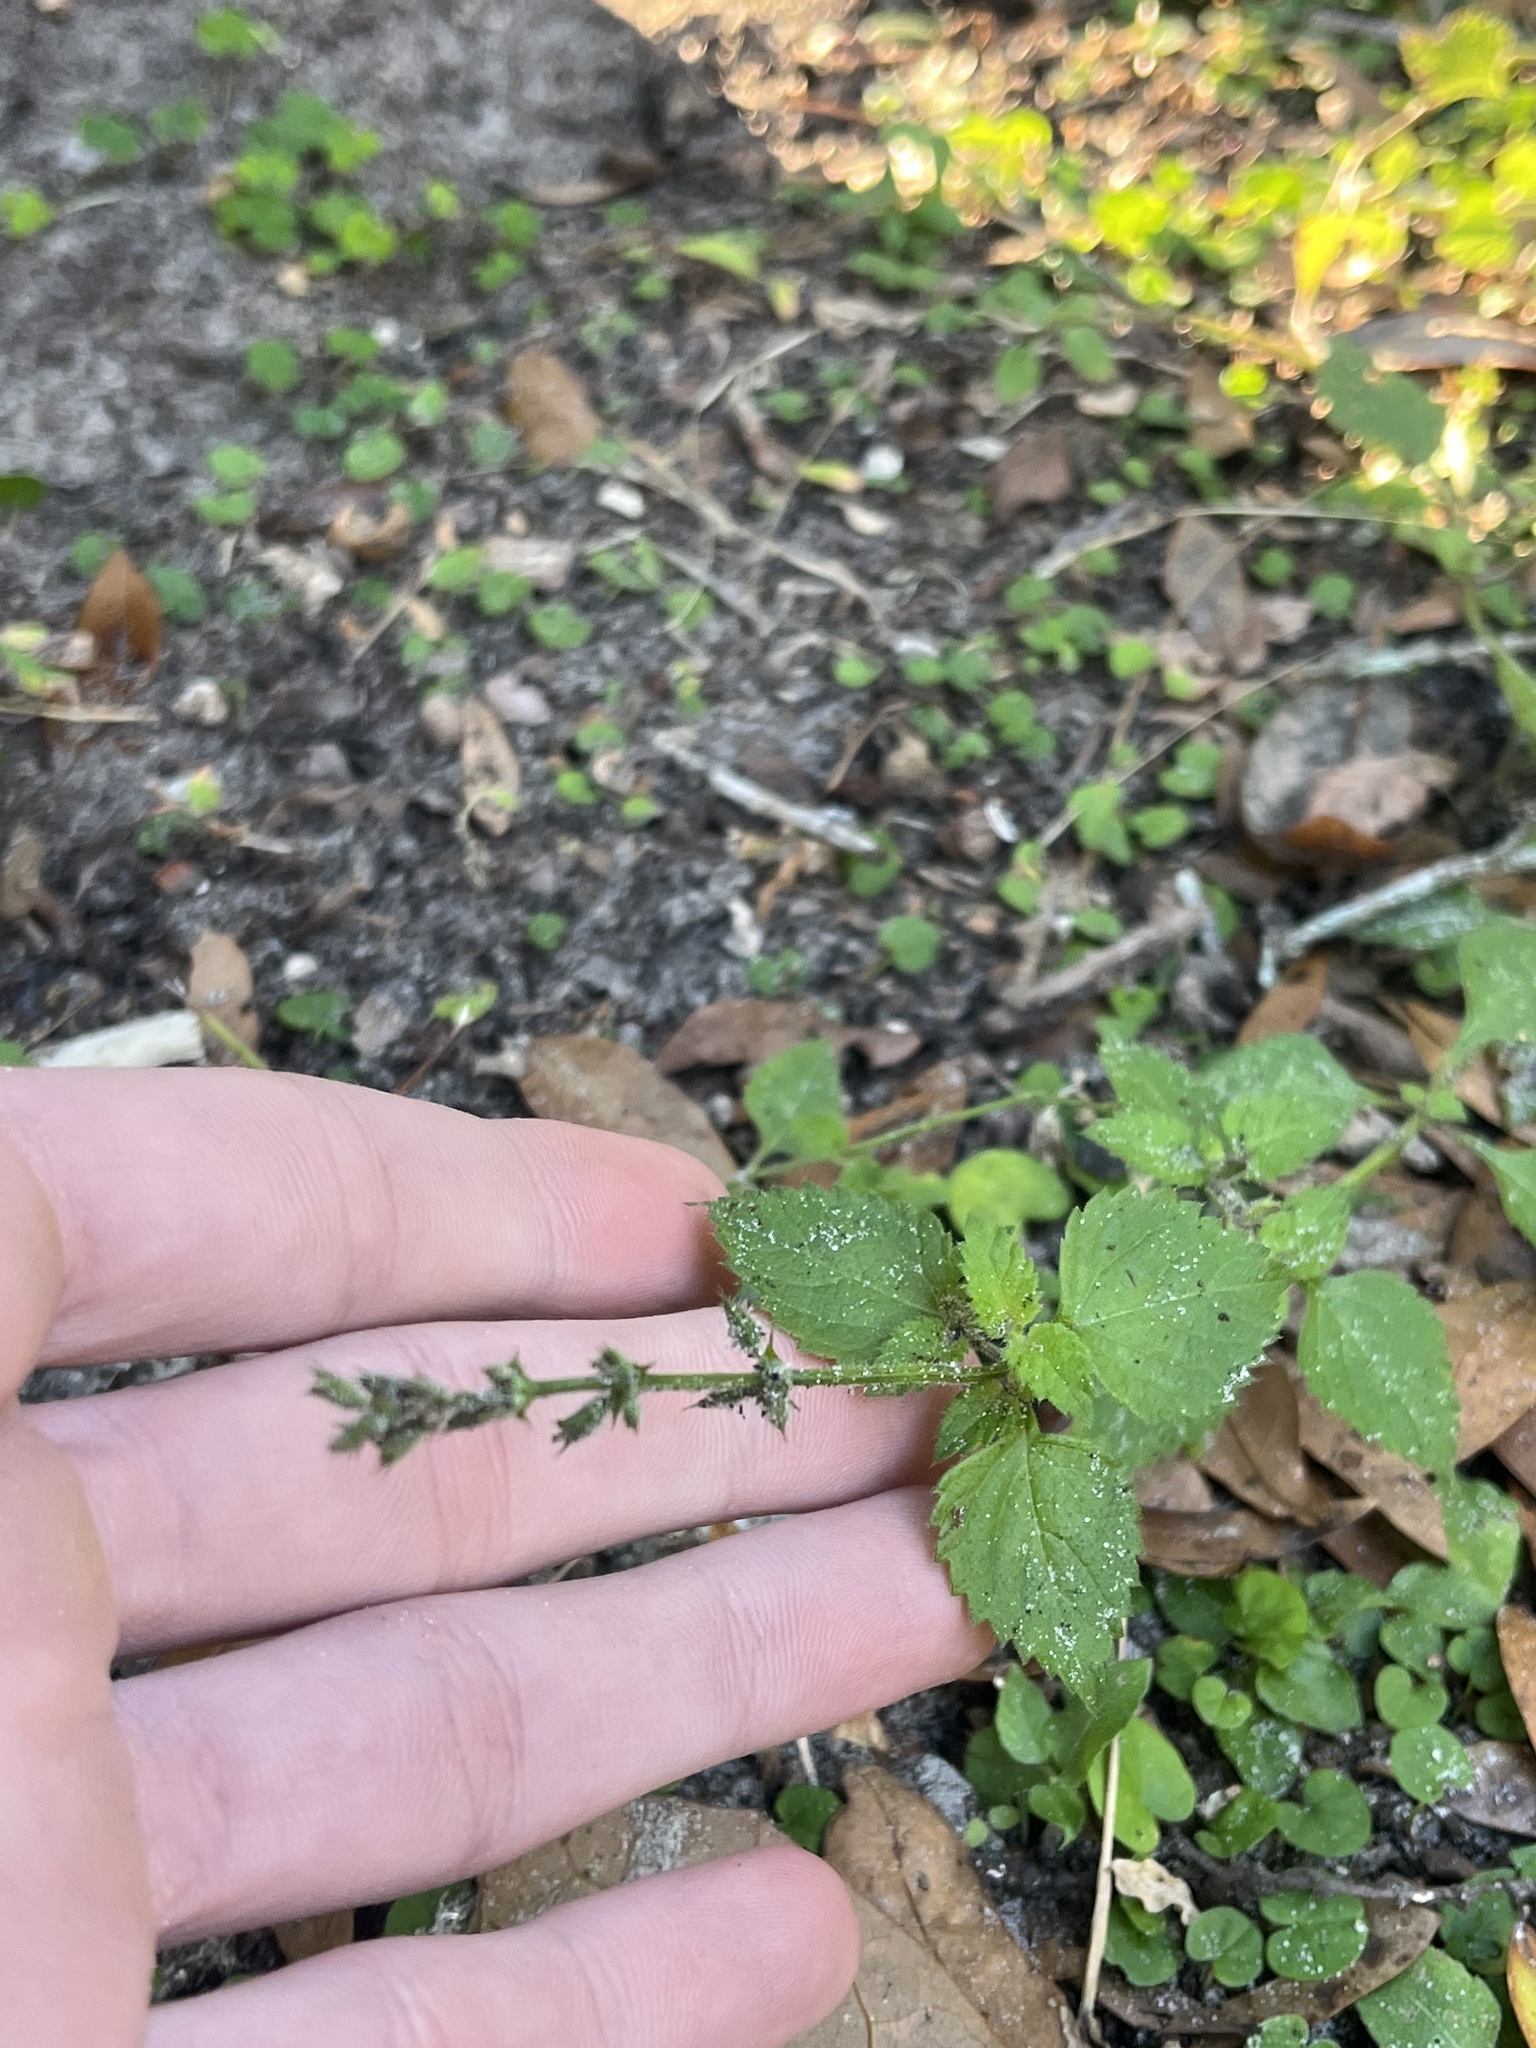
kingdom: Plantae
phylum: Tracheophyta
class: Magnoliopsida
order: Lamiales
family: Lamiaceae
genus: Salvia
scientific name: Salvia misella
